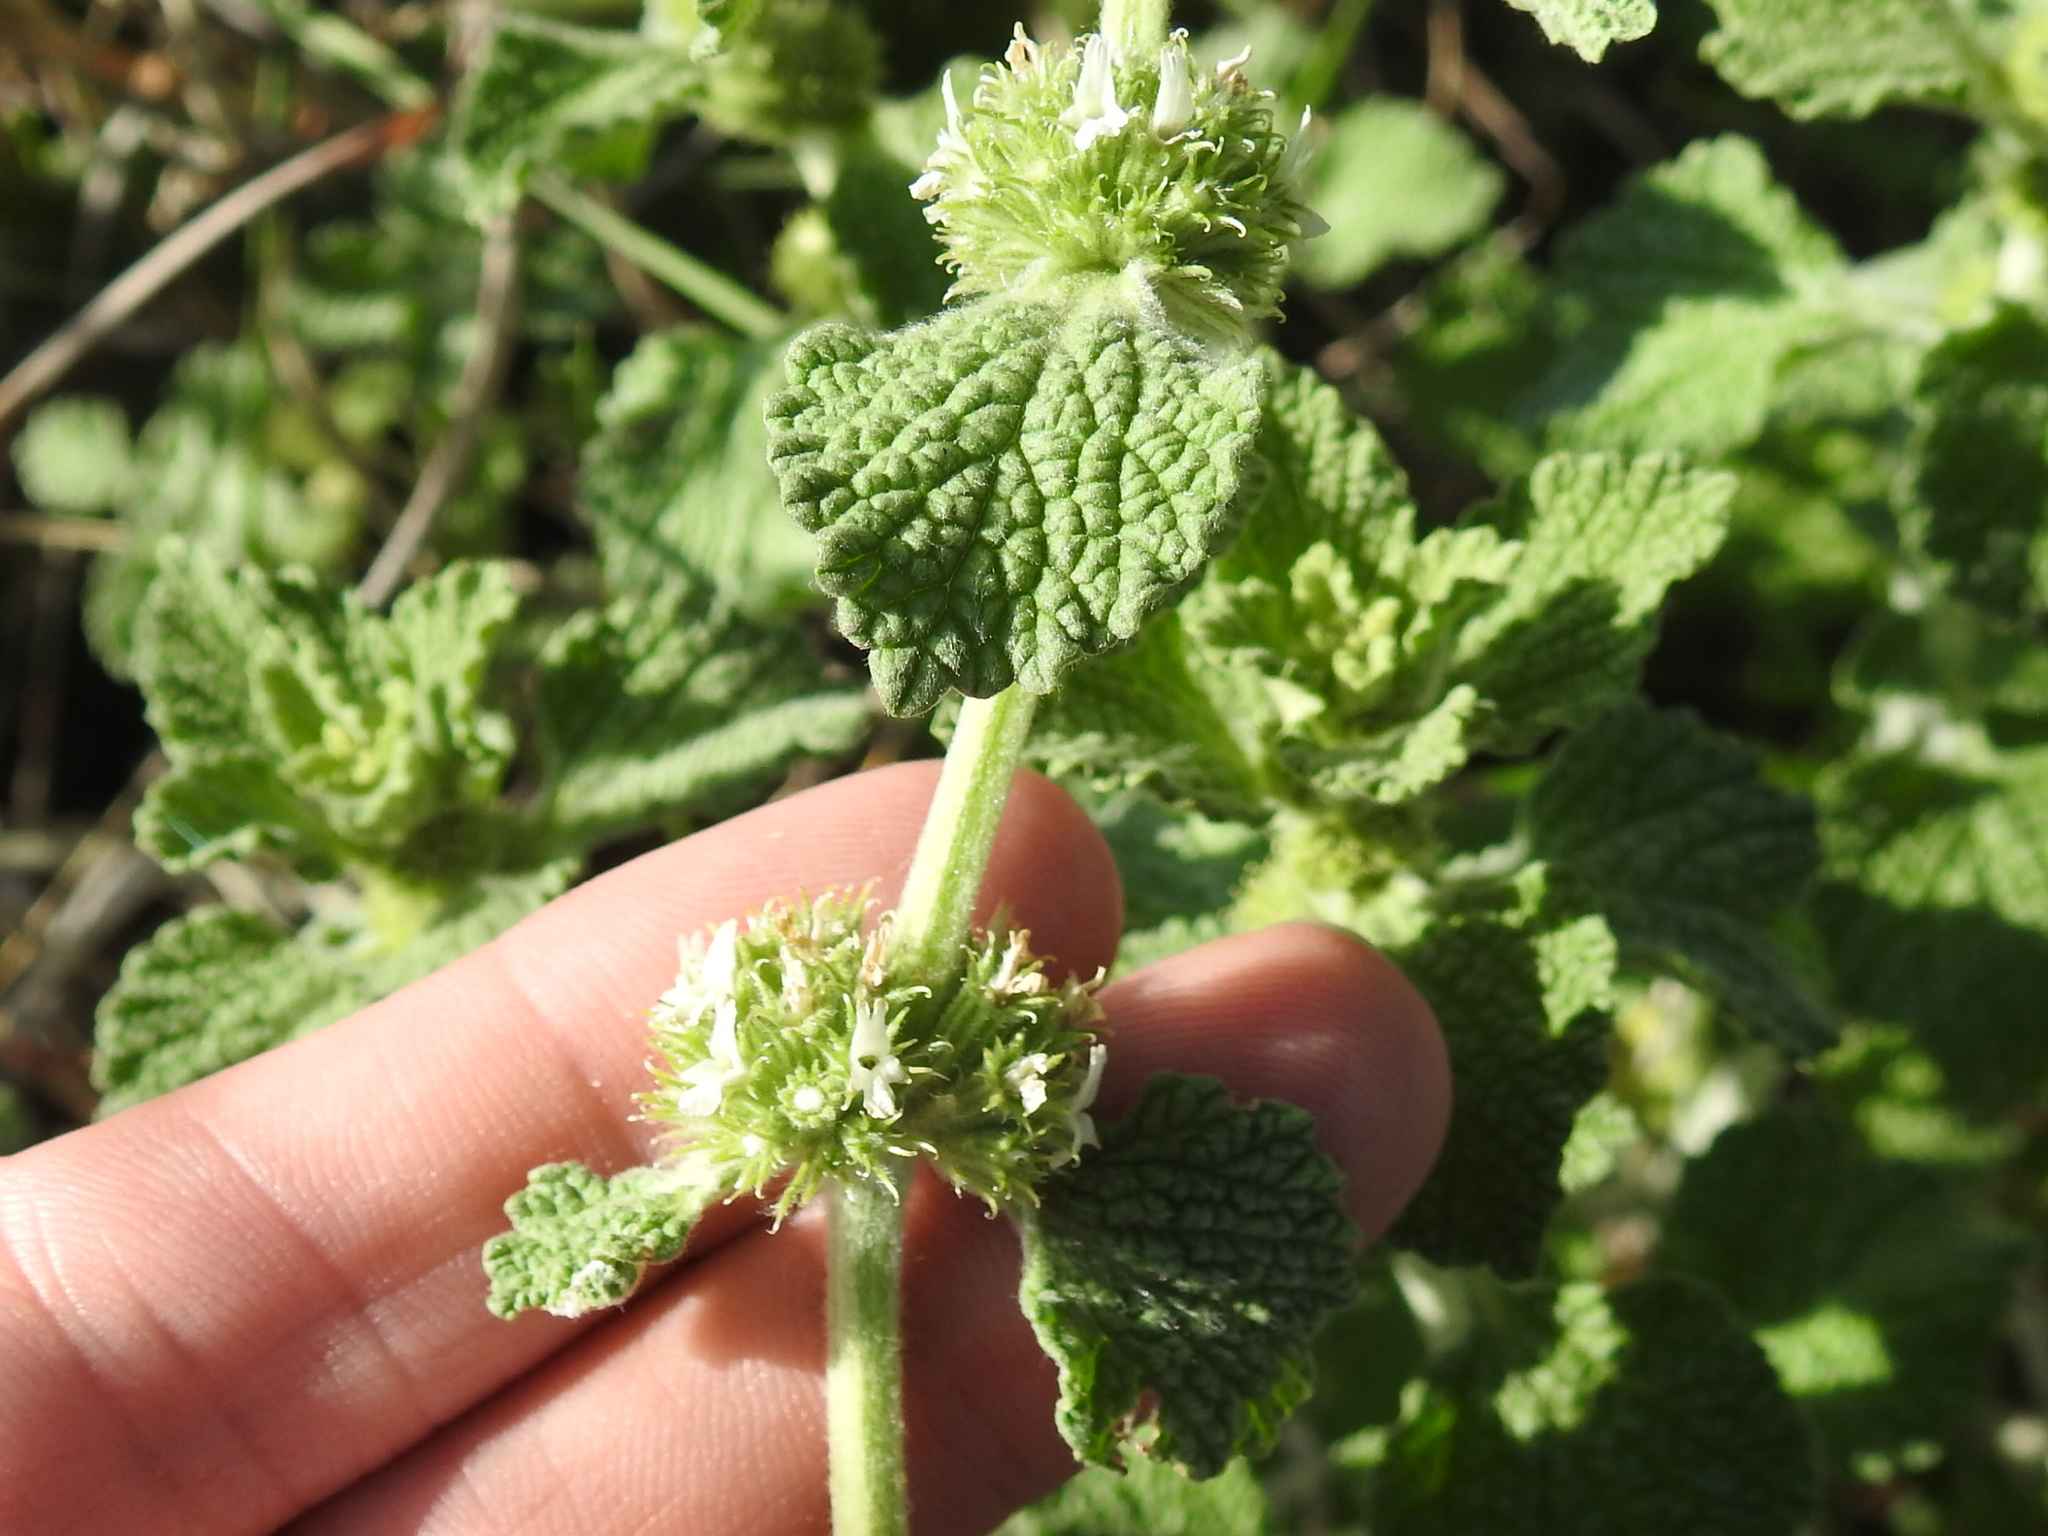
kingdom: Plantae
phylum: Tracheophyta
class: Magnoliopsida
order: Lamiales
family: Lamiaceae
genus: Marrubium
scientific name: Marrubium vulgare
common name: Horehound
